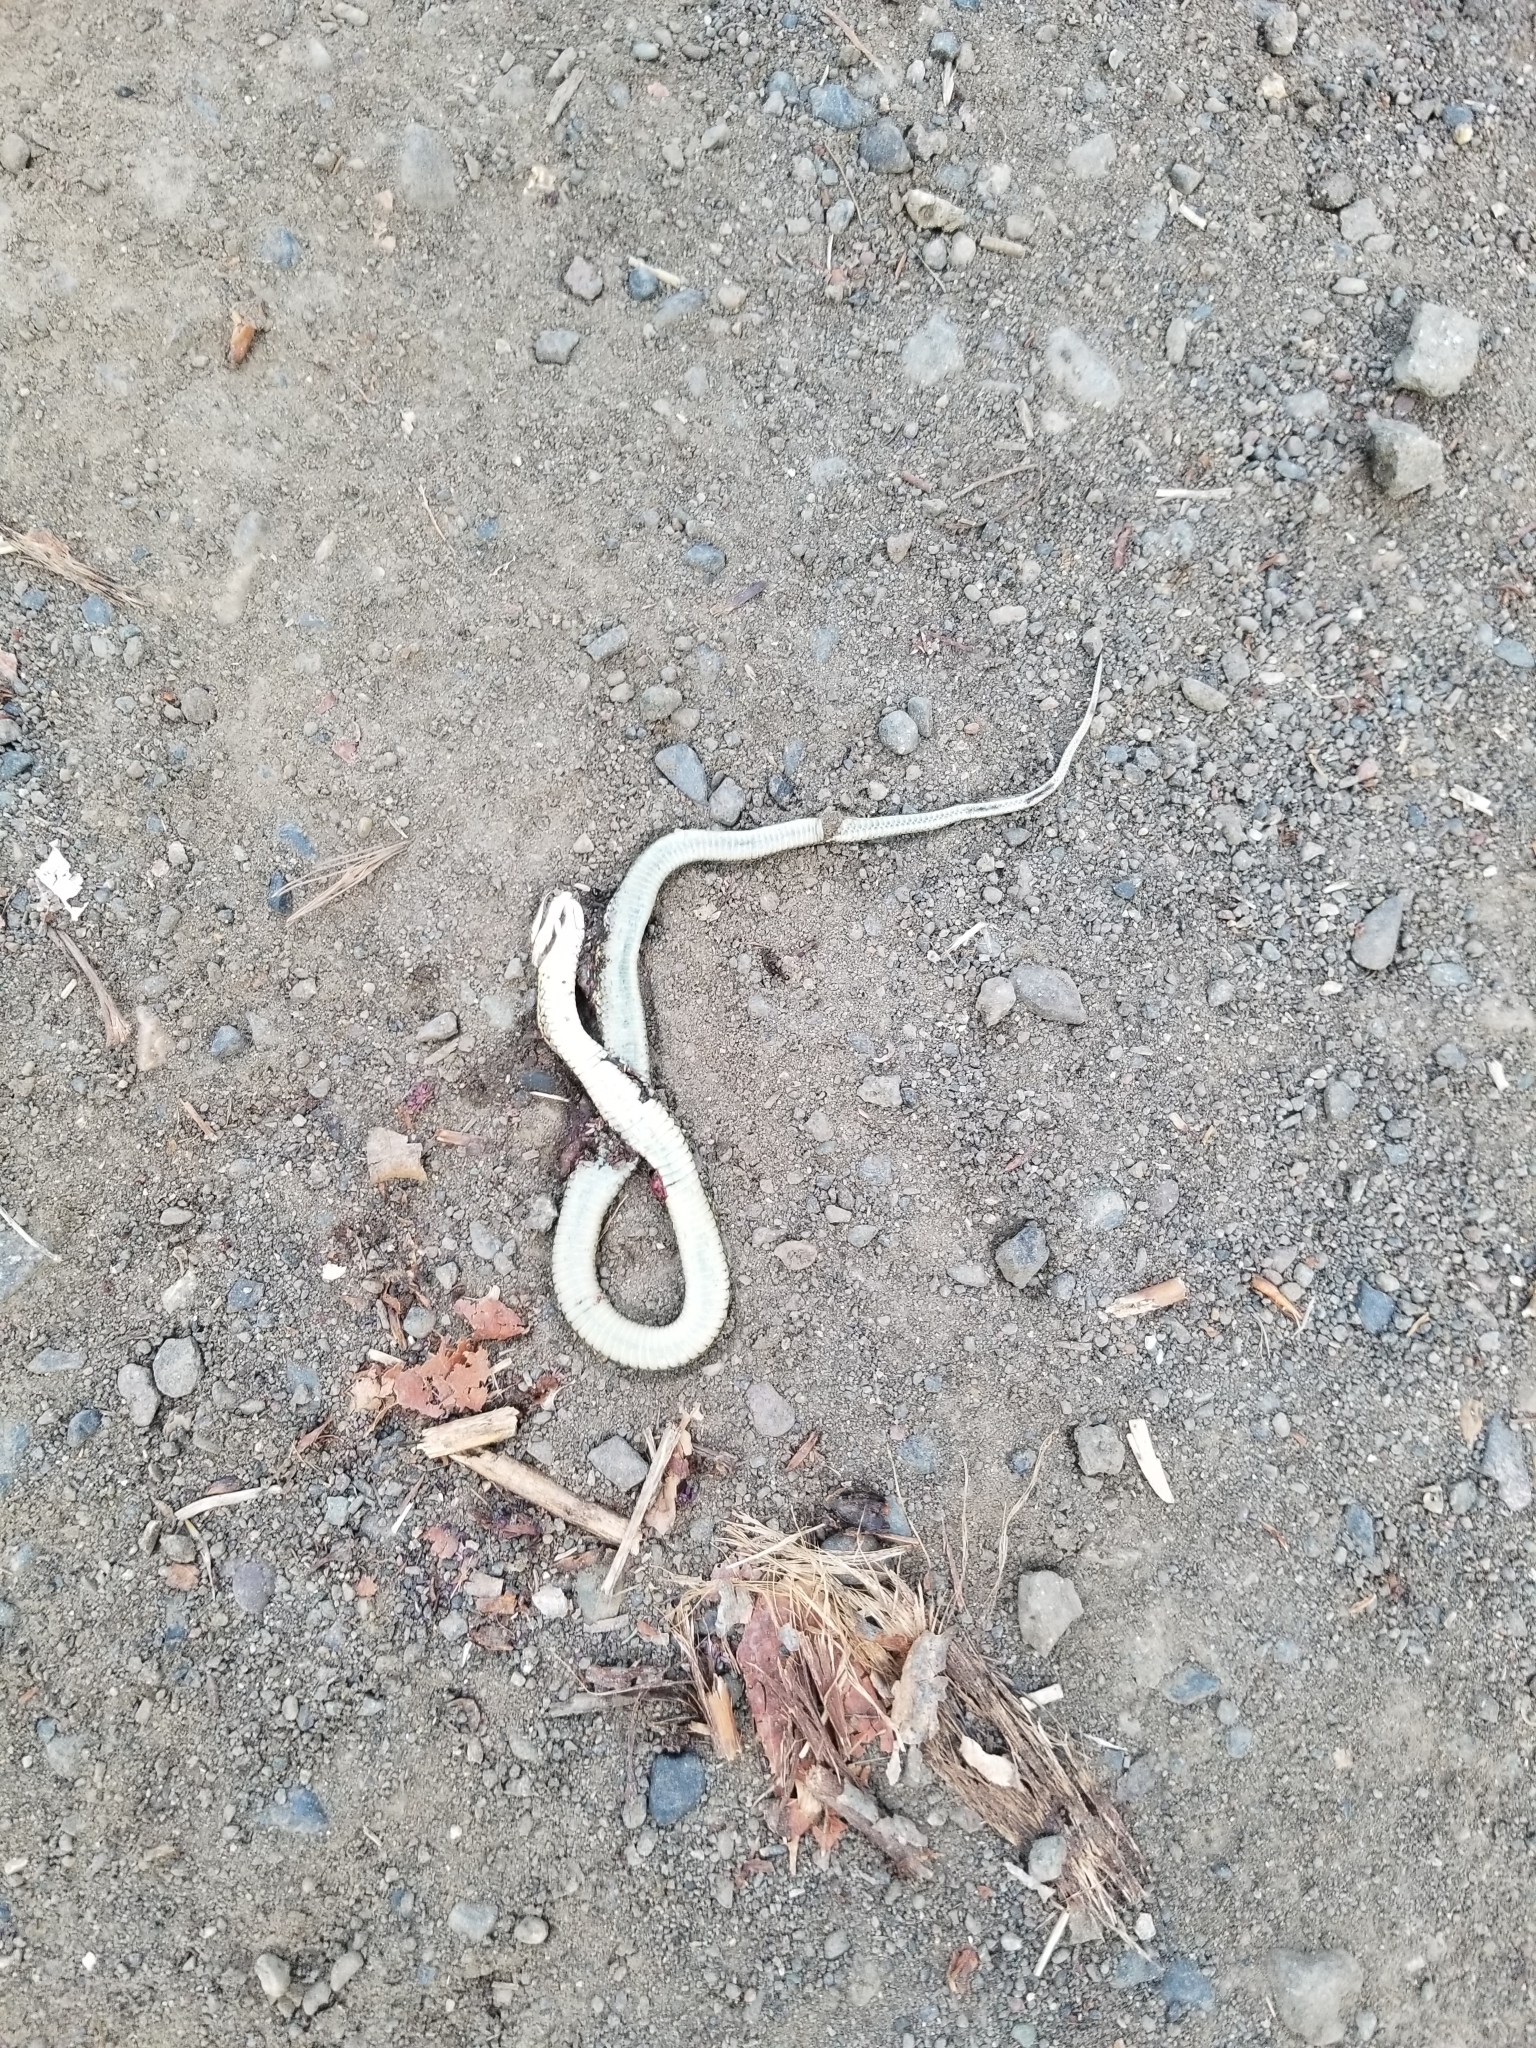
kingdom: Animalia
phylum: Chordata
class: Squamata
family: Colubridae
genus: Thamnophis
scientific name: Thamnophis sirtalis
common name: Common garter snake
